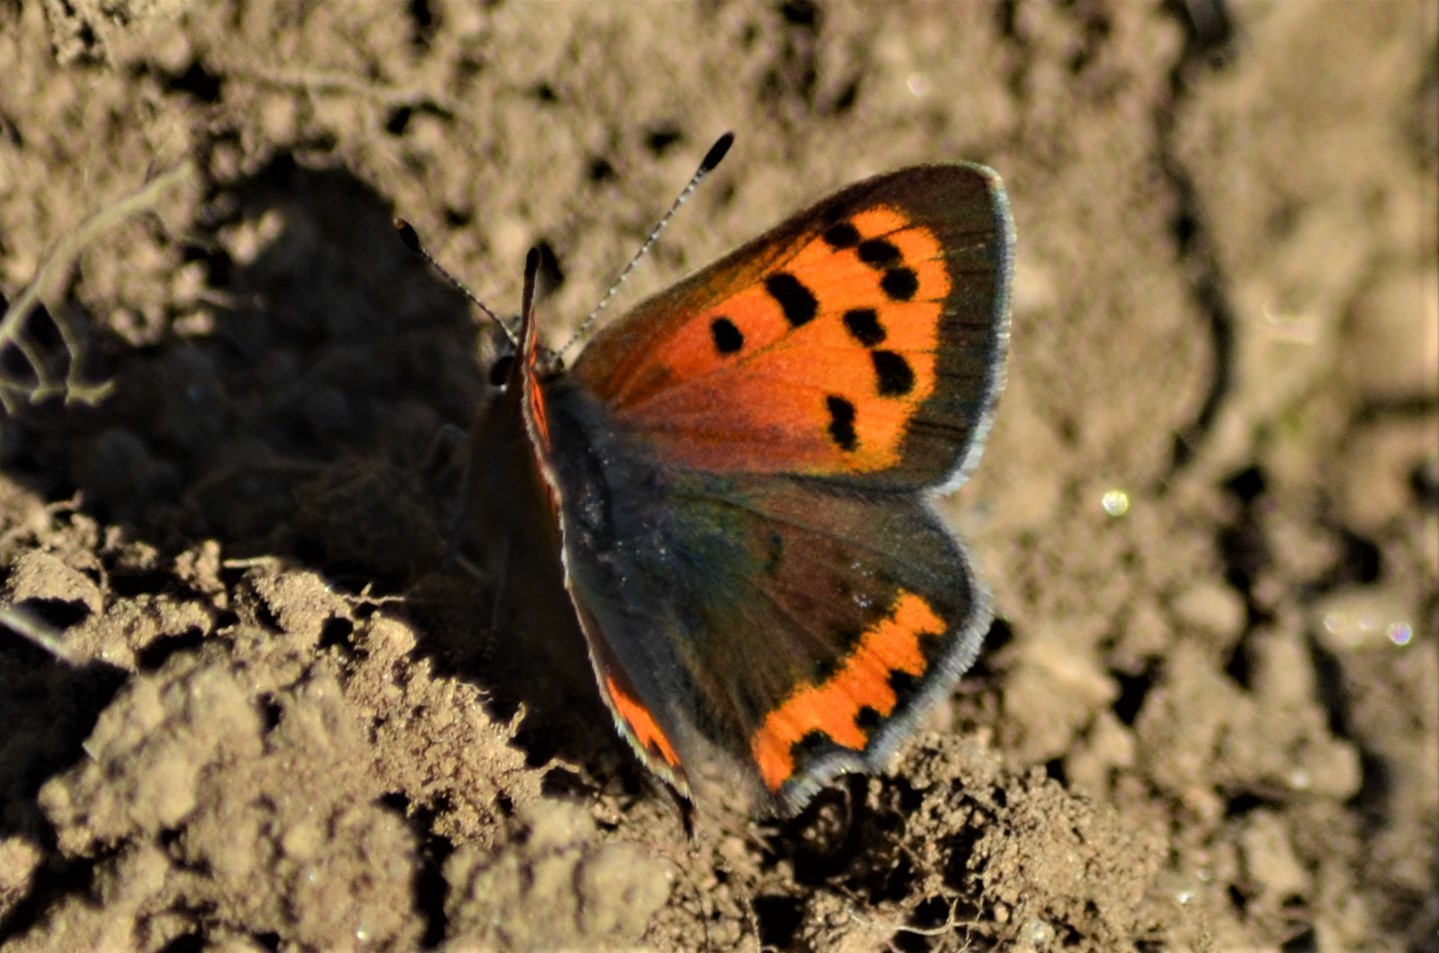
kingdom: Animalia
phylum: Arthropoda
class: Insecta
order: Lepidoptera
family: Lycaenidae
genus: Lycaena
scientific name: Lycaena phlaeas
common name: Small copper
